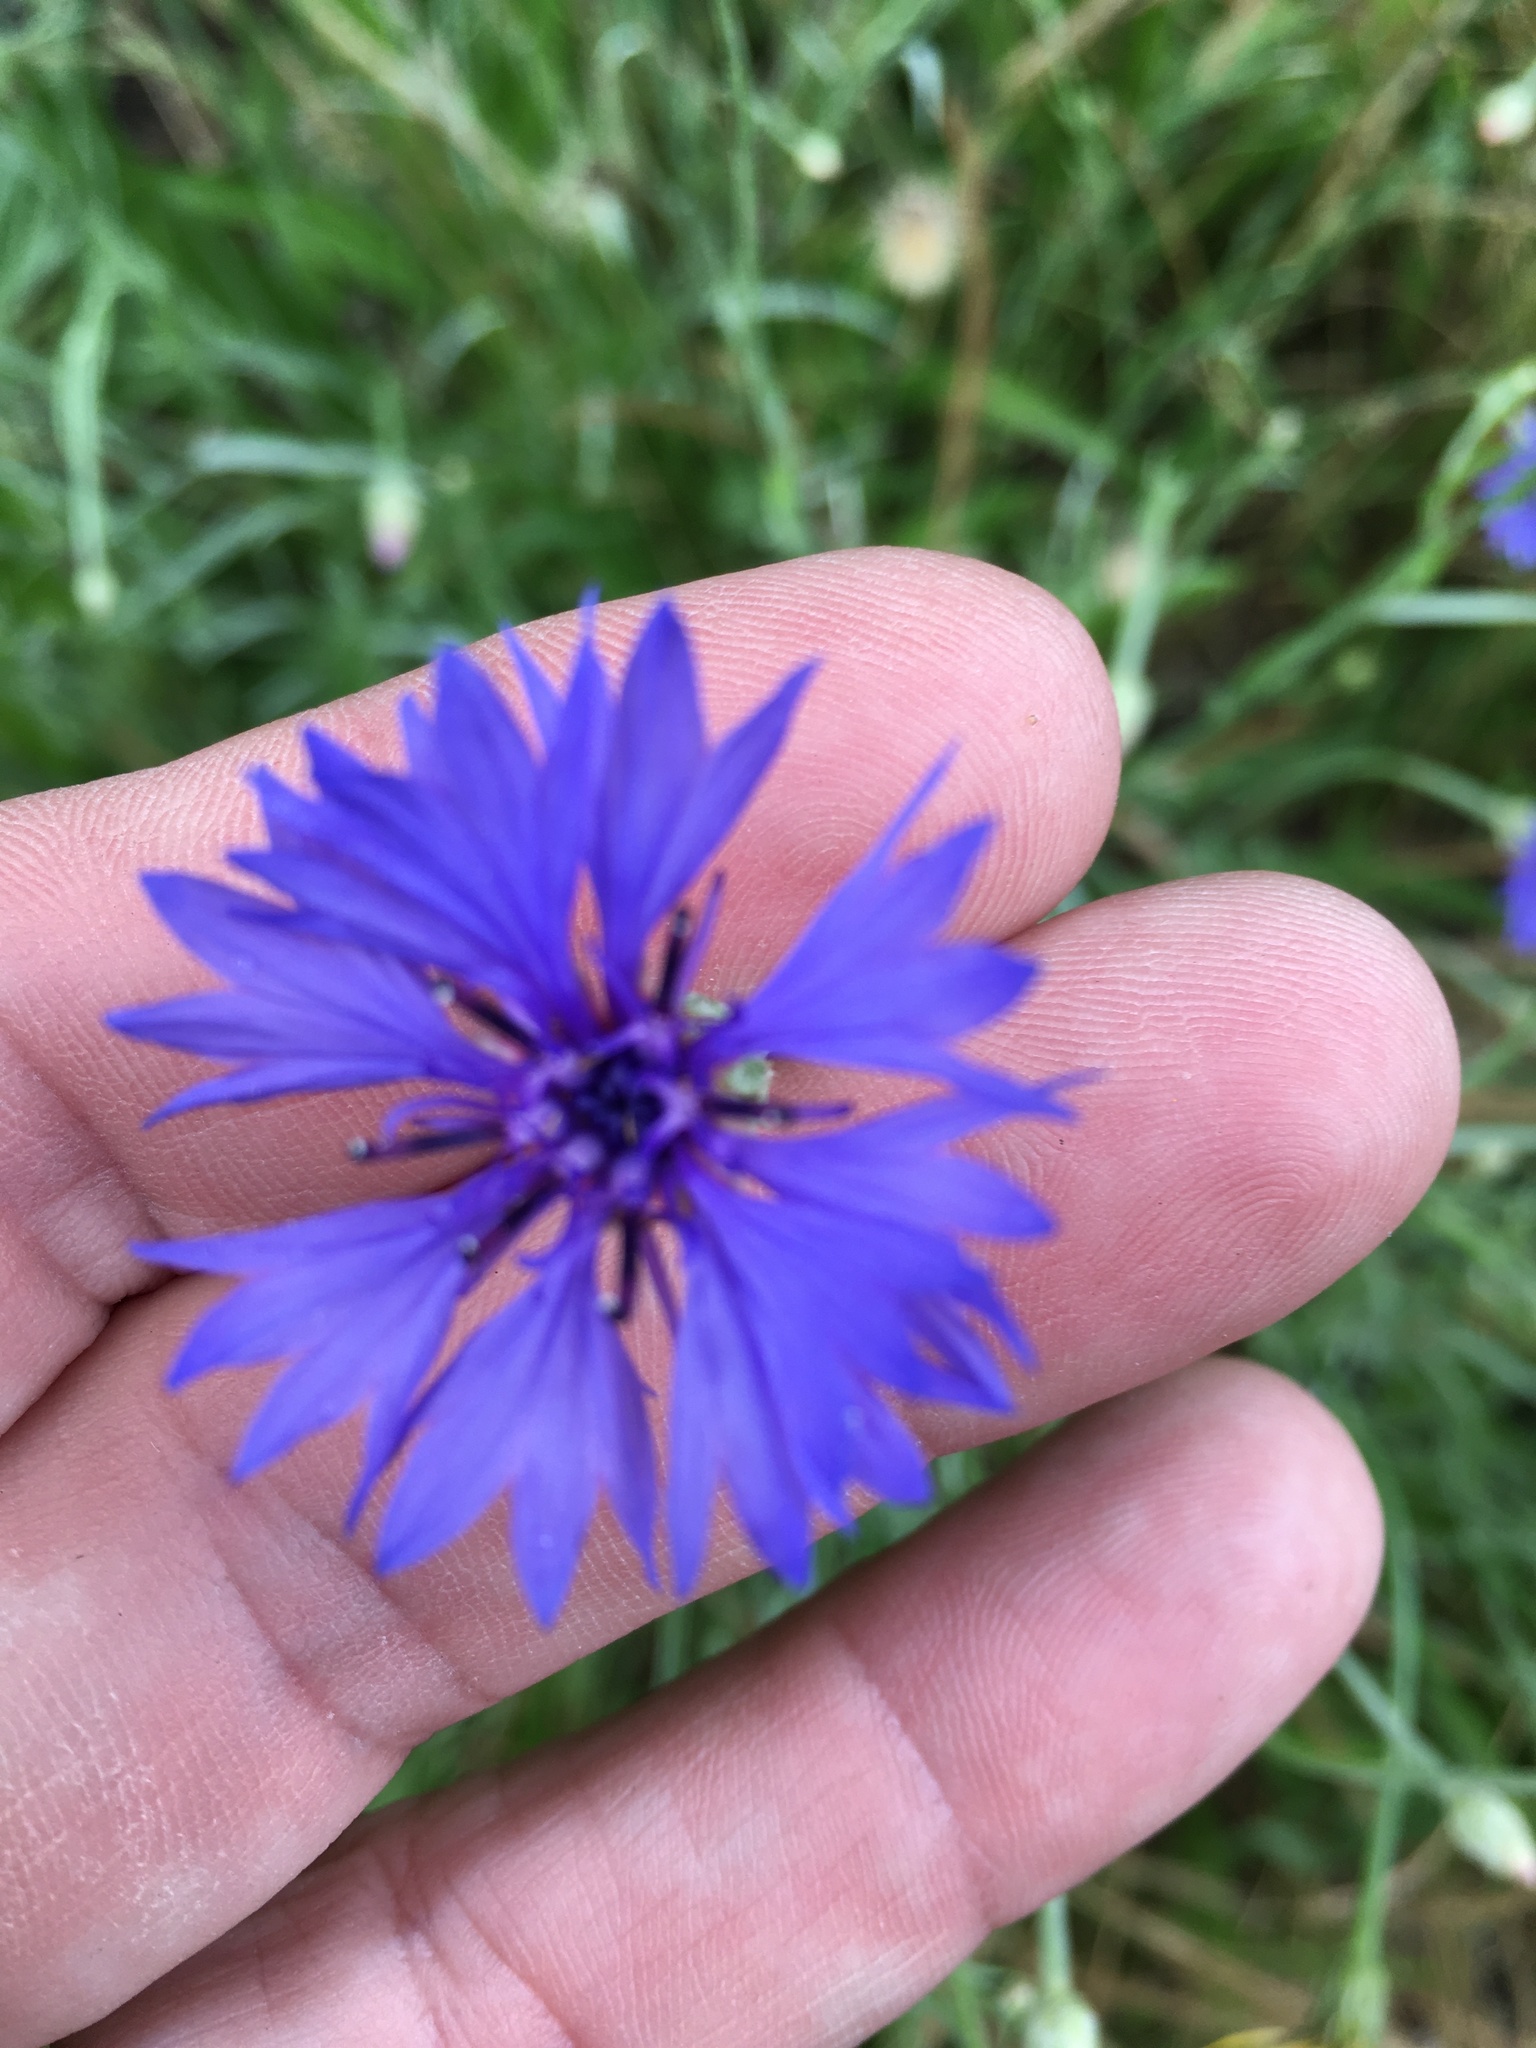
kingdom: Plantae
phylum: Tracheophyta
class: Magnoliopsida
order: Asterales
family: Asteraceae
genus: Centaurea
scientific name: Centaurea cyanus
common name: Cornflower
